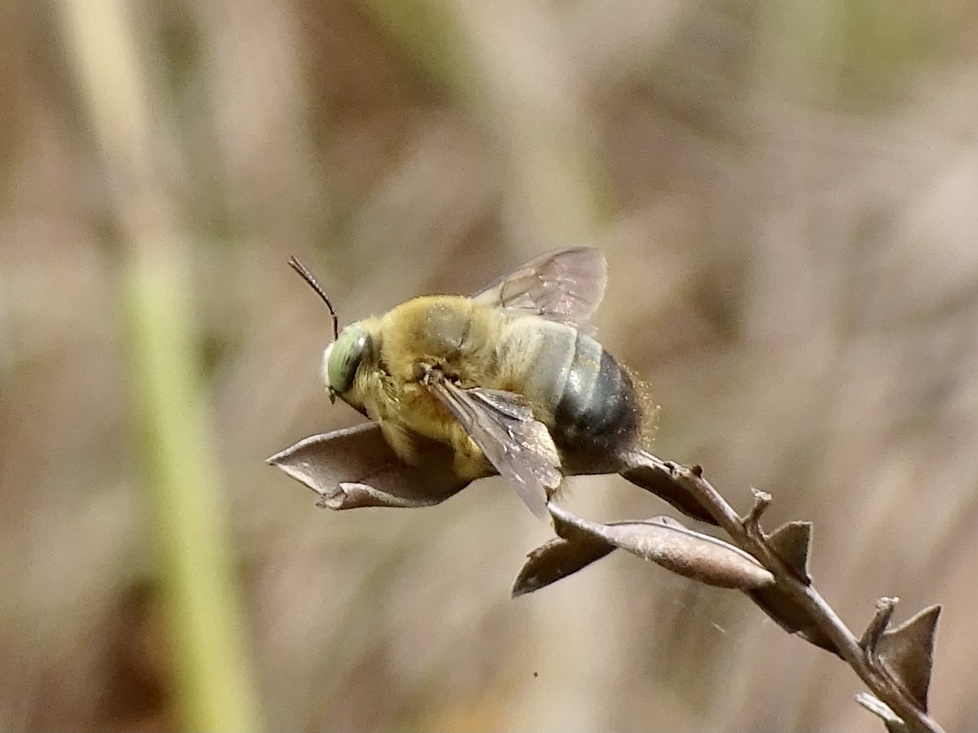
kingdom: Animalia
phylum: Arthropoda
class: Insecta
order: Hymenoptera
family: Apidae
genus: Xylocopa
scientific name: Xylocopa dejeanii
